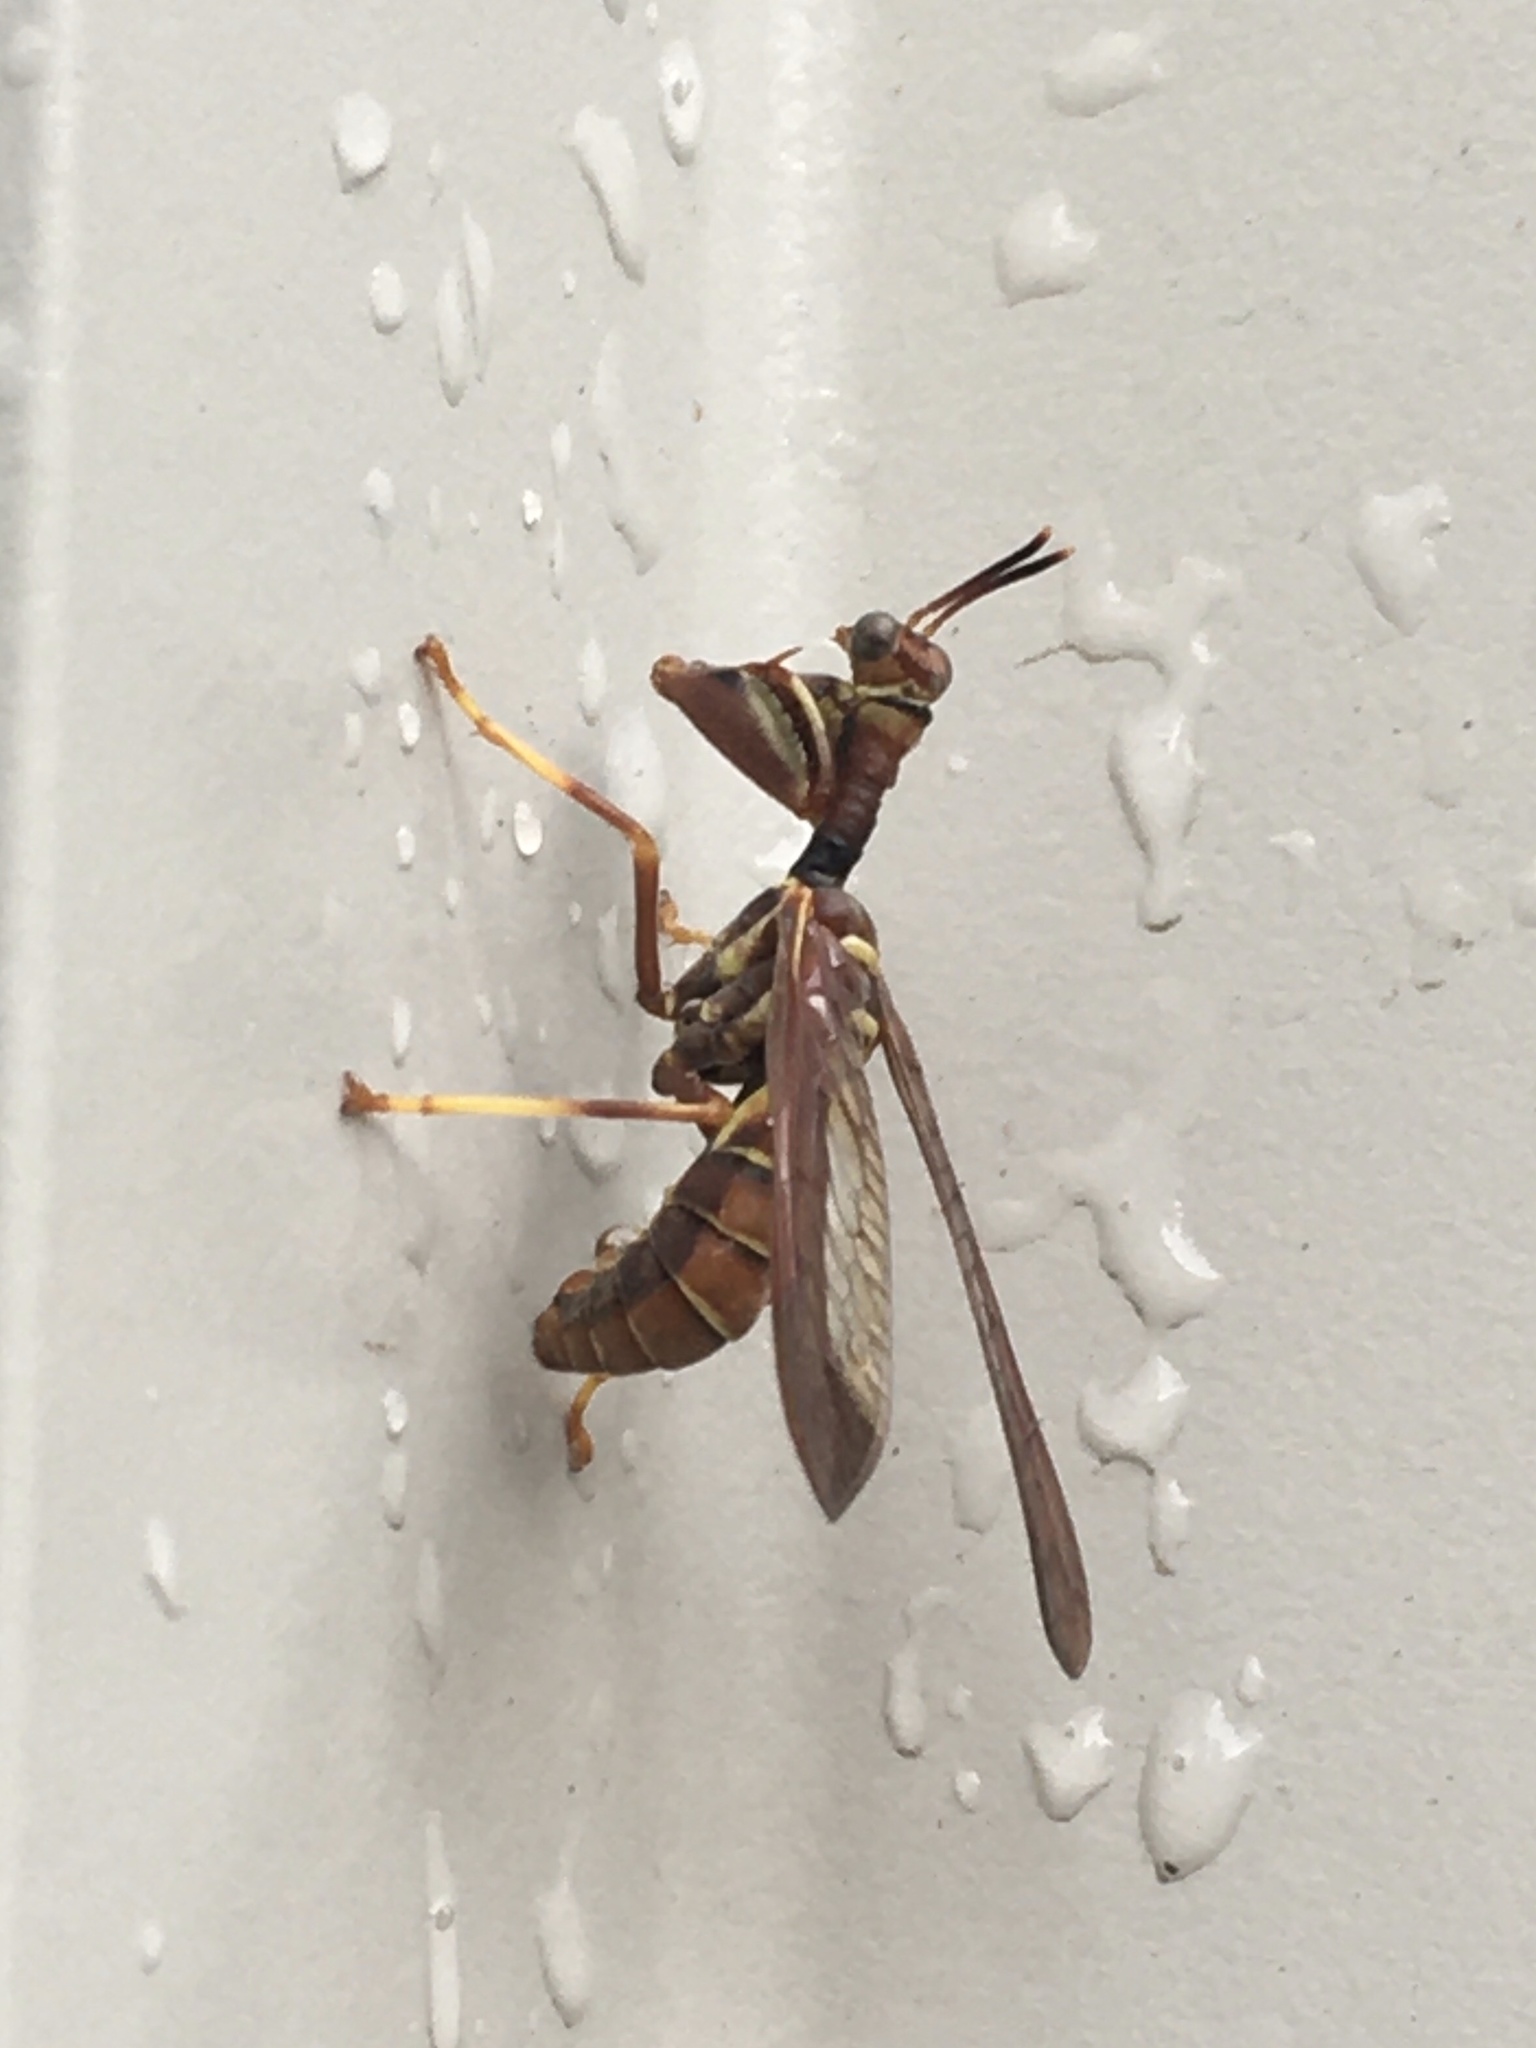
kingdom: Animalia
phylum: Arthropoda
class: Insecta
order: Neuroptera
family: Mantispidae
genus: Climaciella
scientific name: Climaciella brunnea
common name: Brown wasp mantidfly
